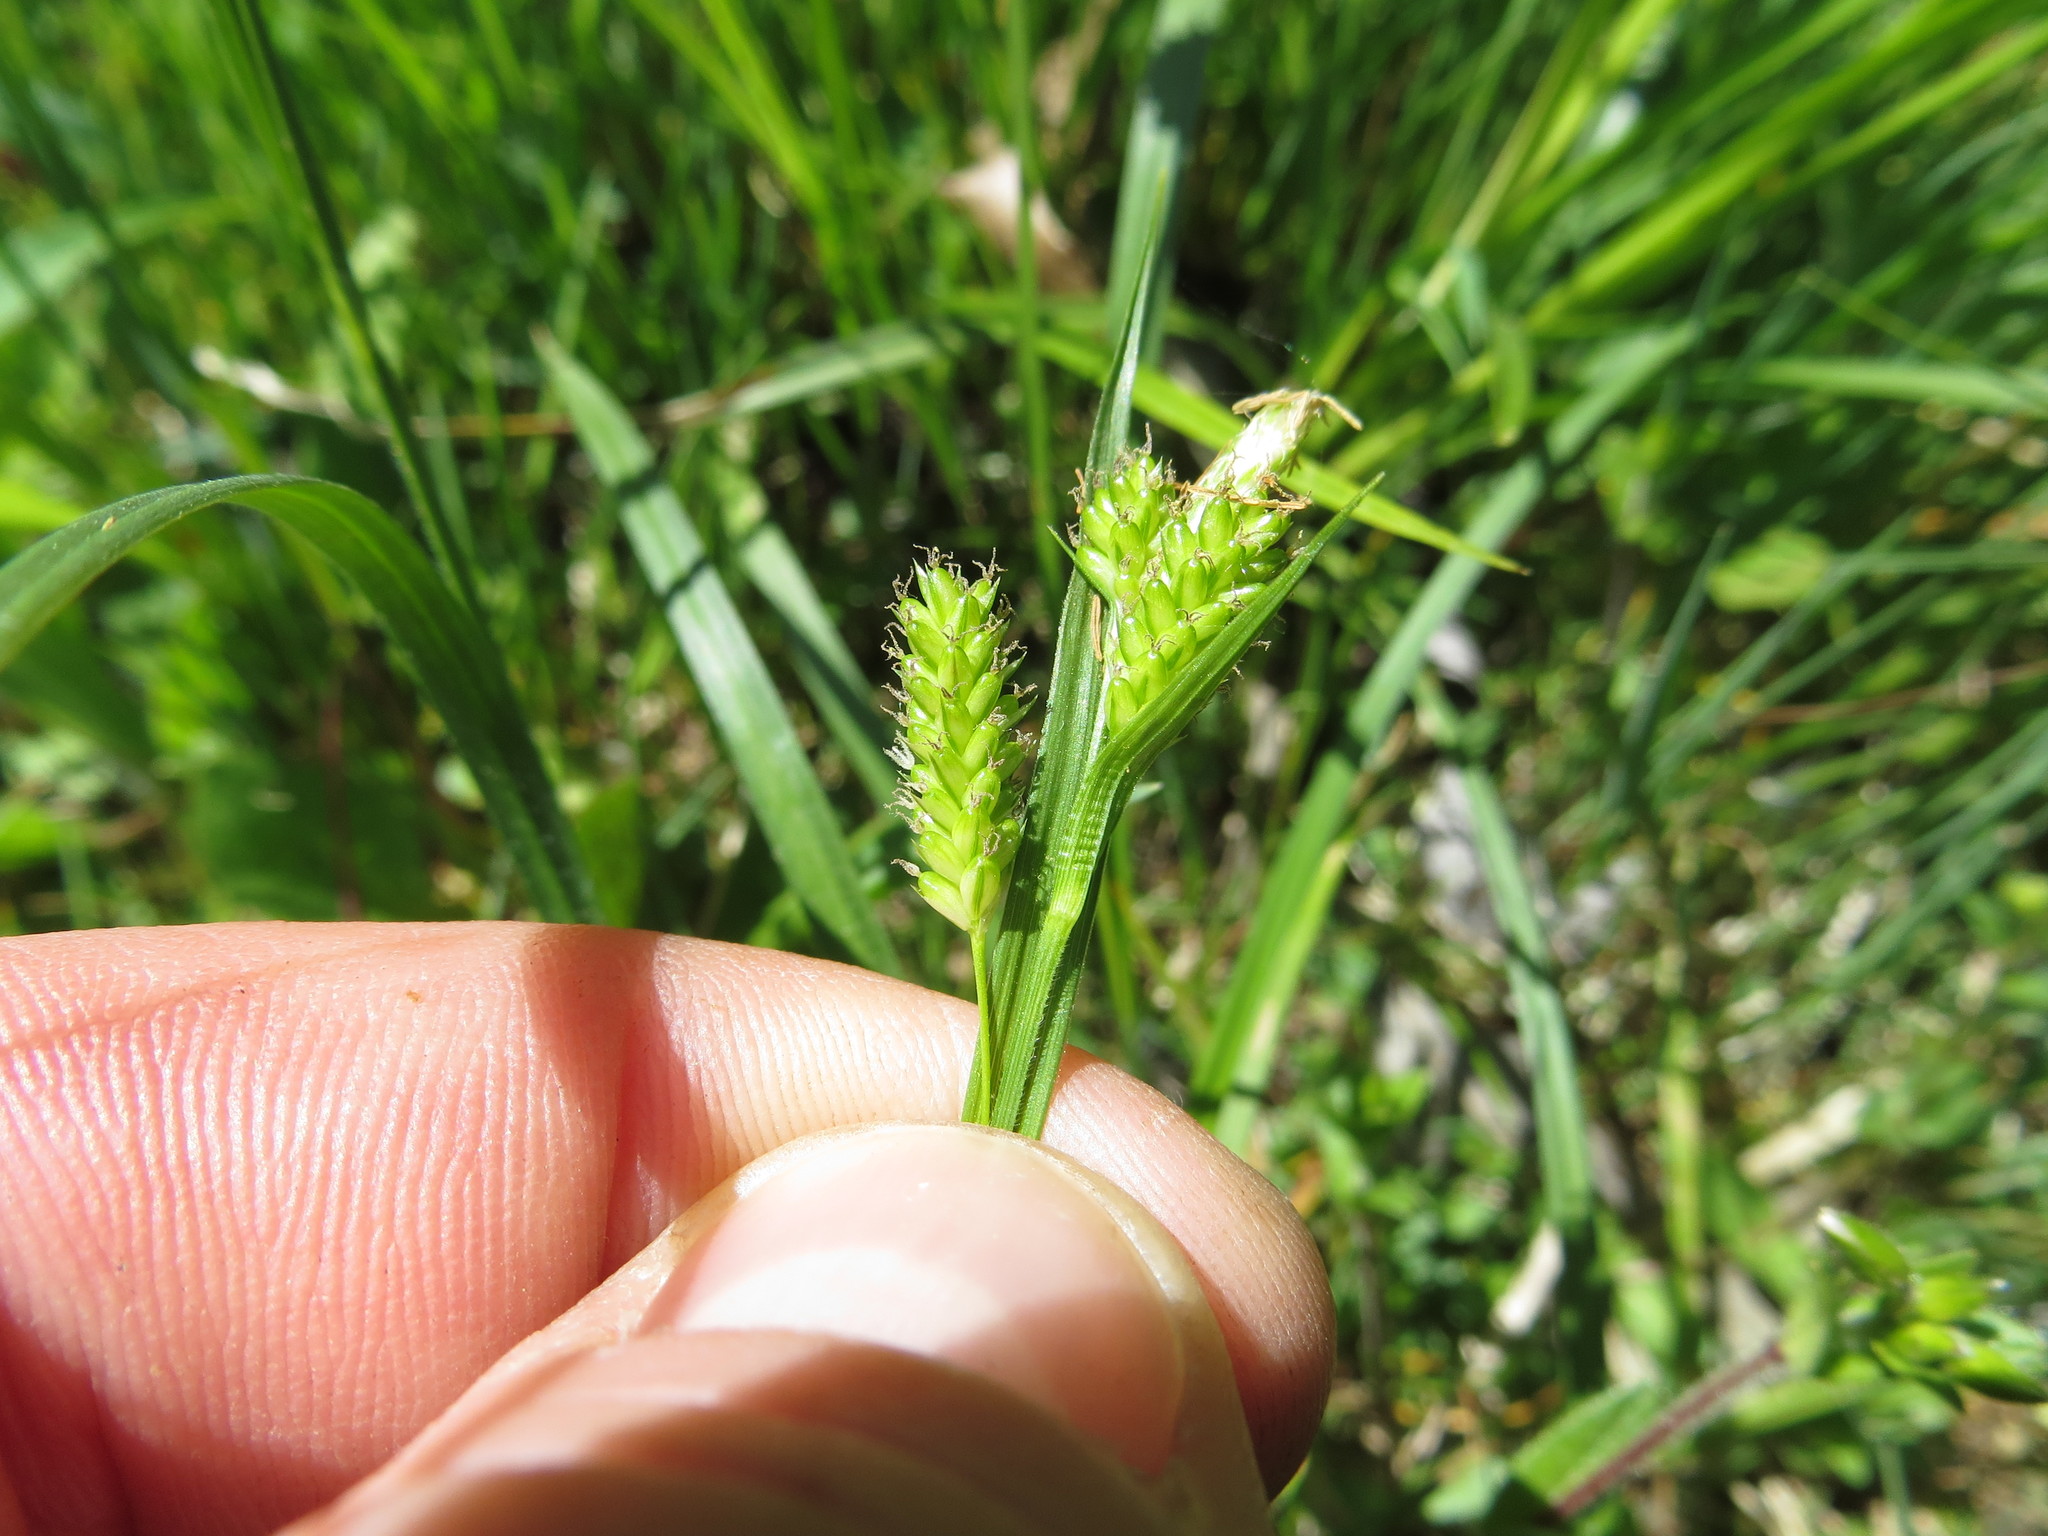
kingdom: Plantae
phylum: Tracheophyta
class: Liliopsida
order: Poales
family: Cyperaceae
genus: Carex
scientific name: Carex pallescens
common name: Pale sedge
